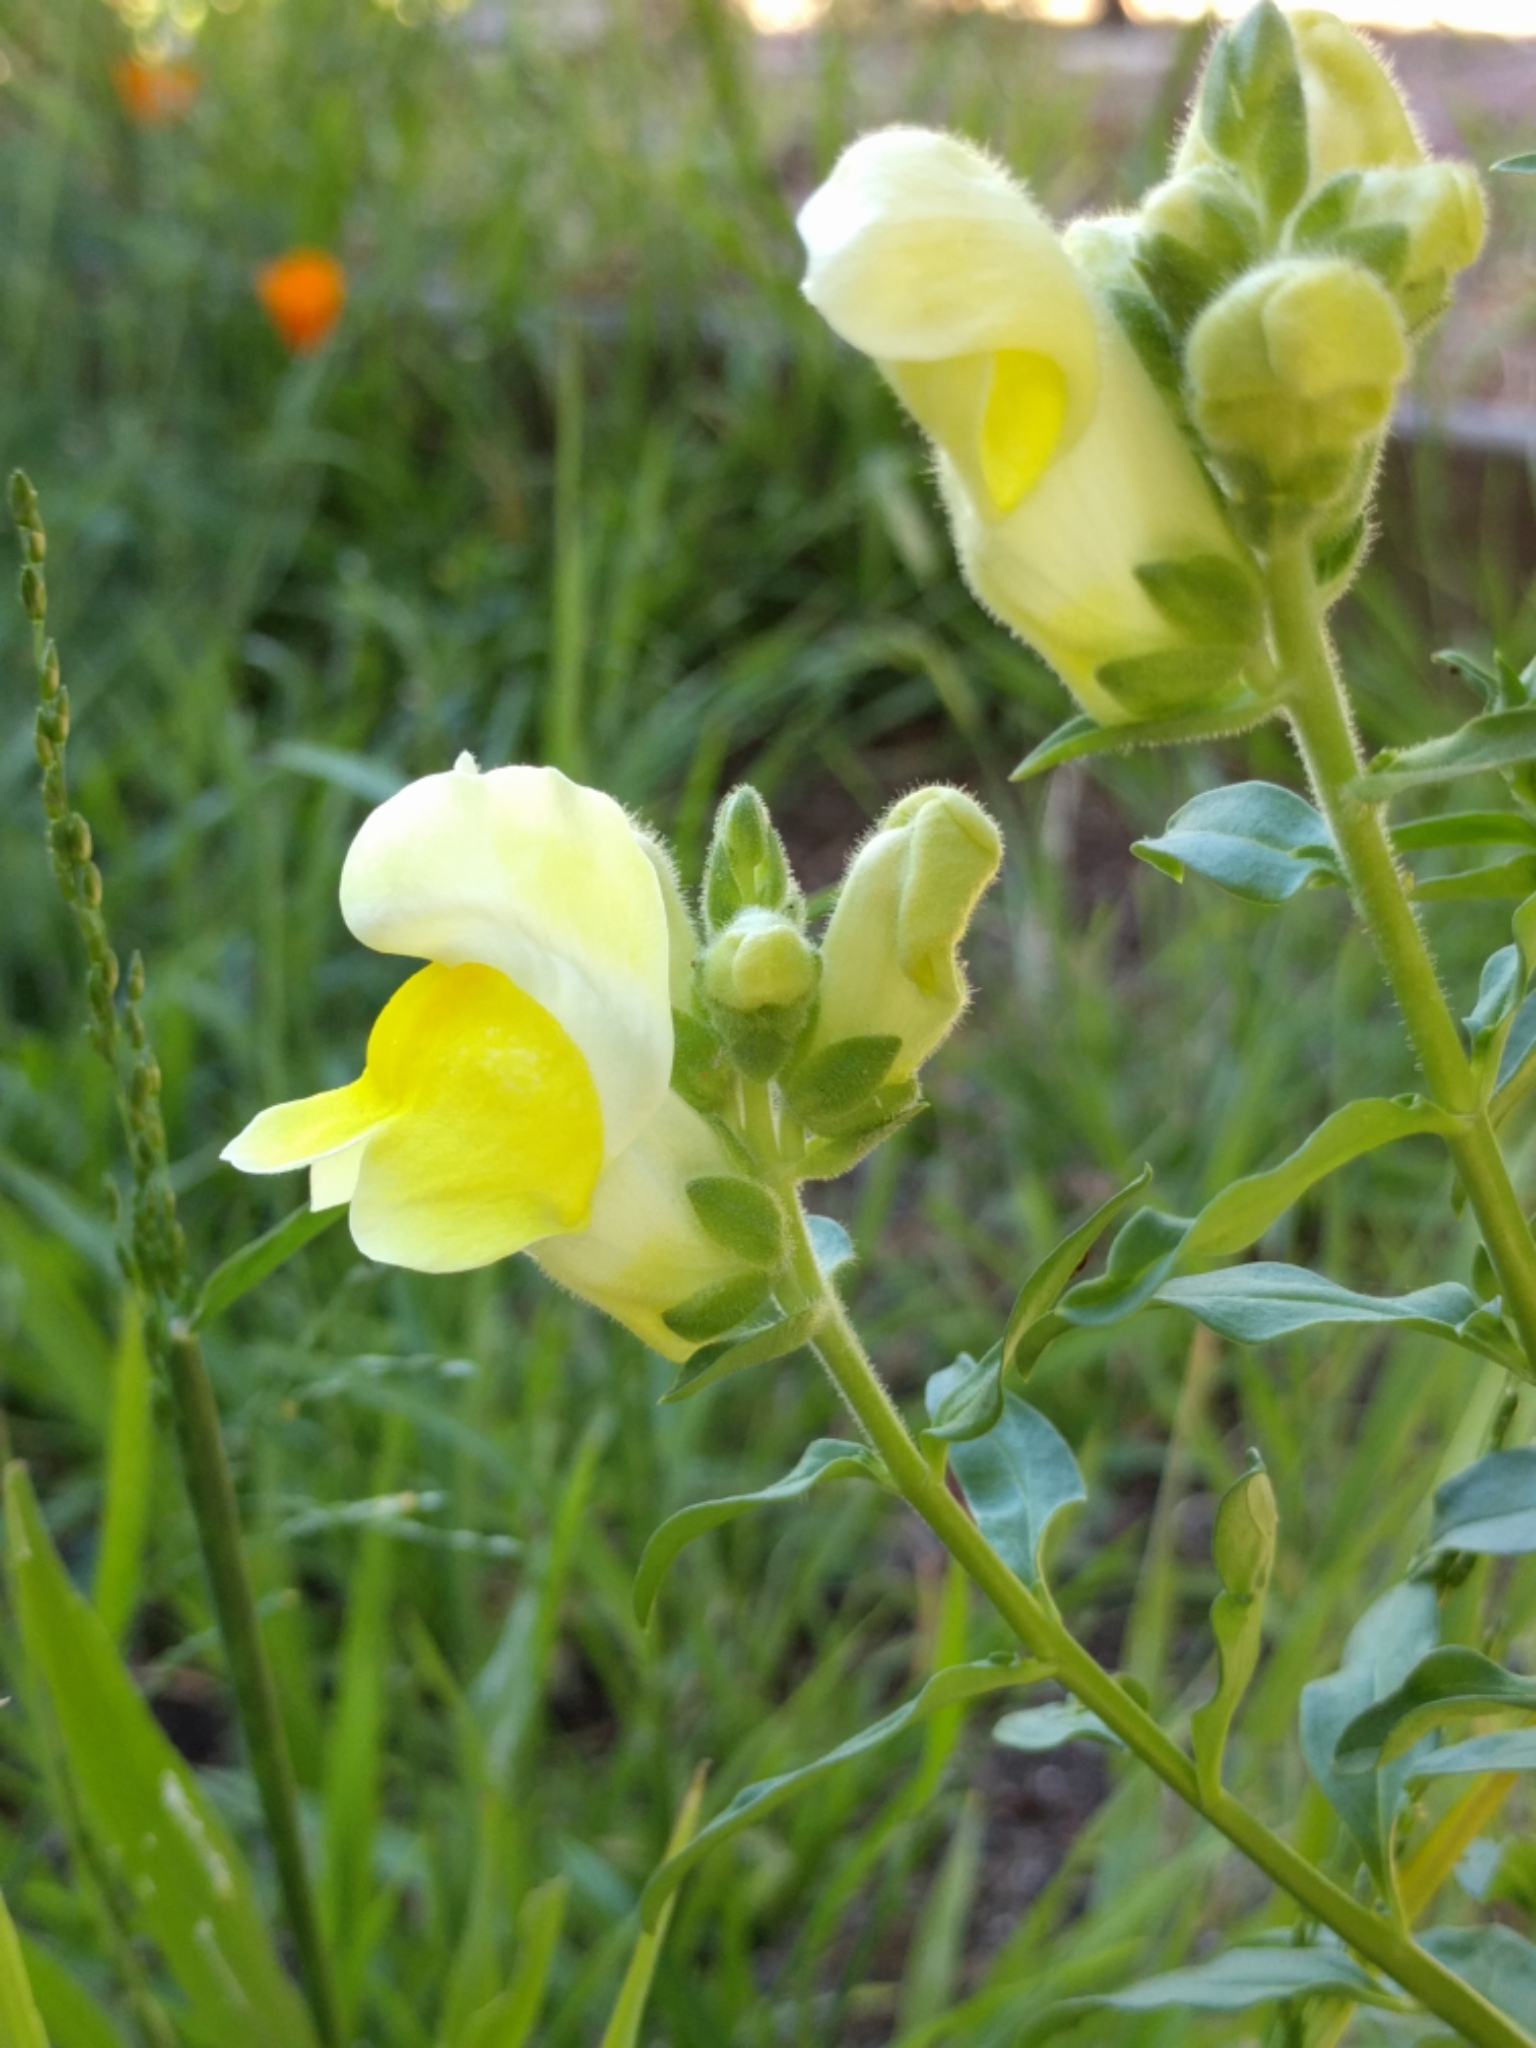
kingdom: Plantae
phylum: Tracheophyta
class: Magnoliopsida
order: Lamiales
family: Plantaginaceae
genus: Antirrhinum
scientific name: Antirrhinum majus
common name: Snapdragon
